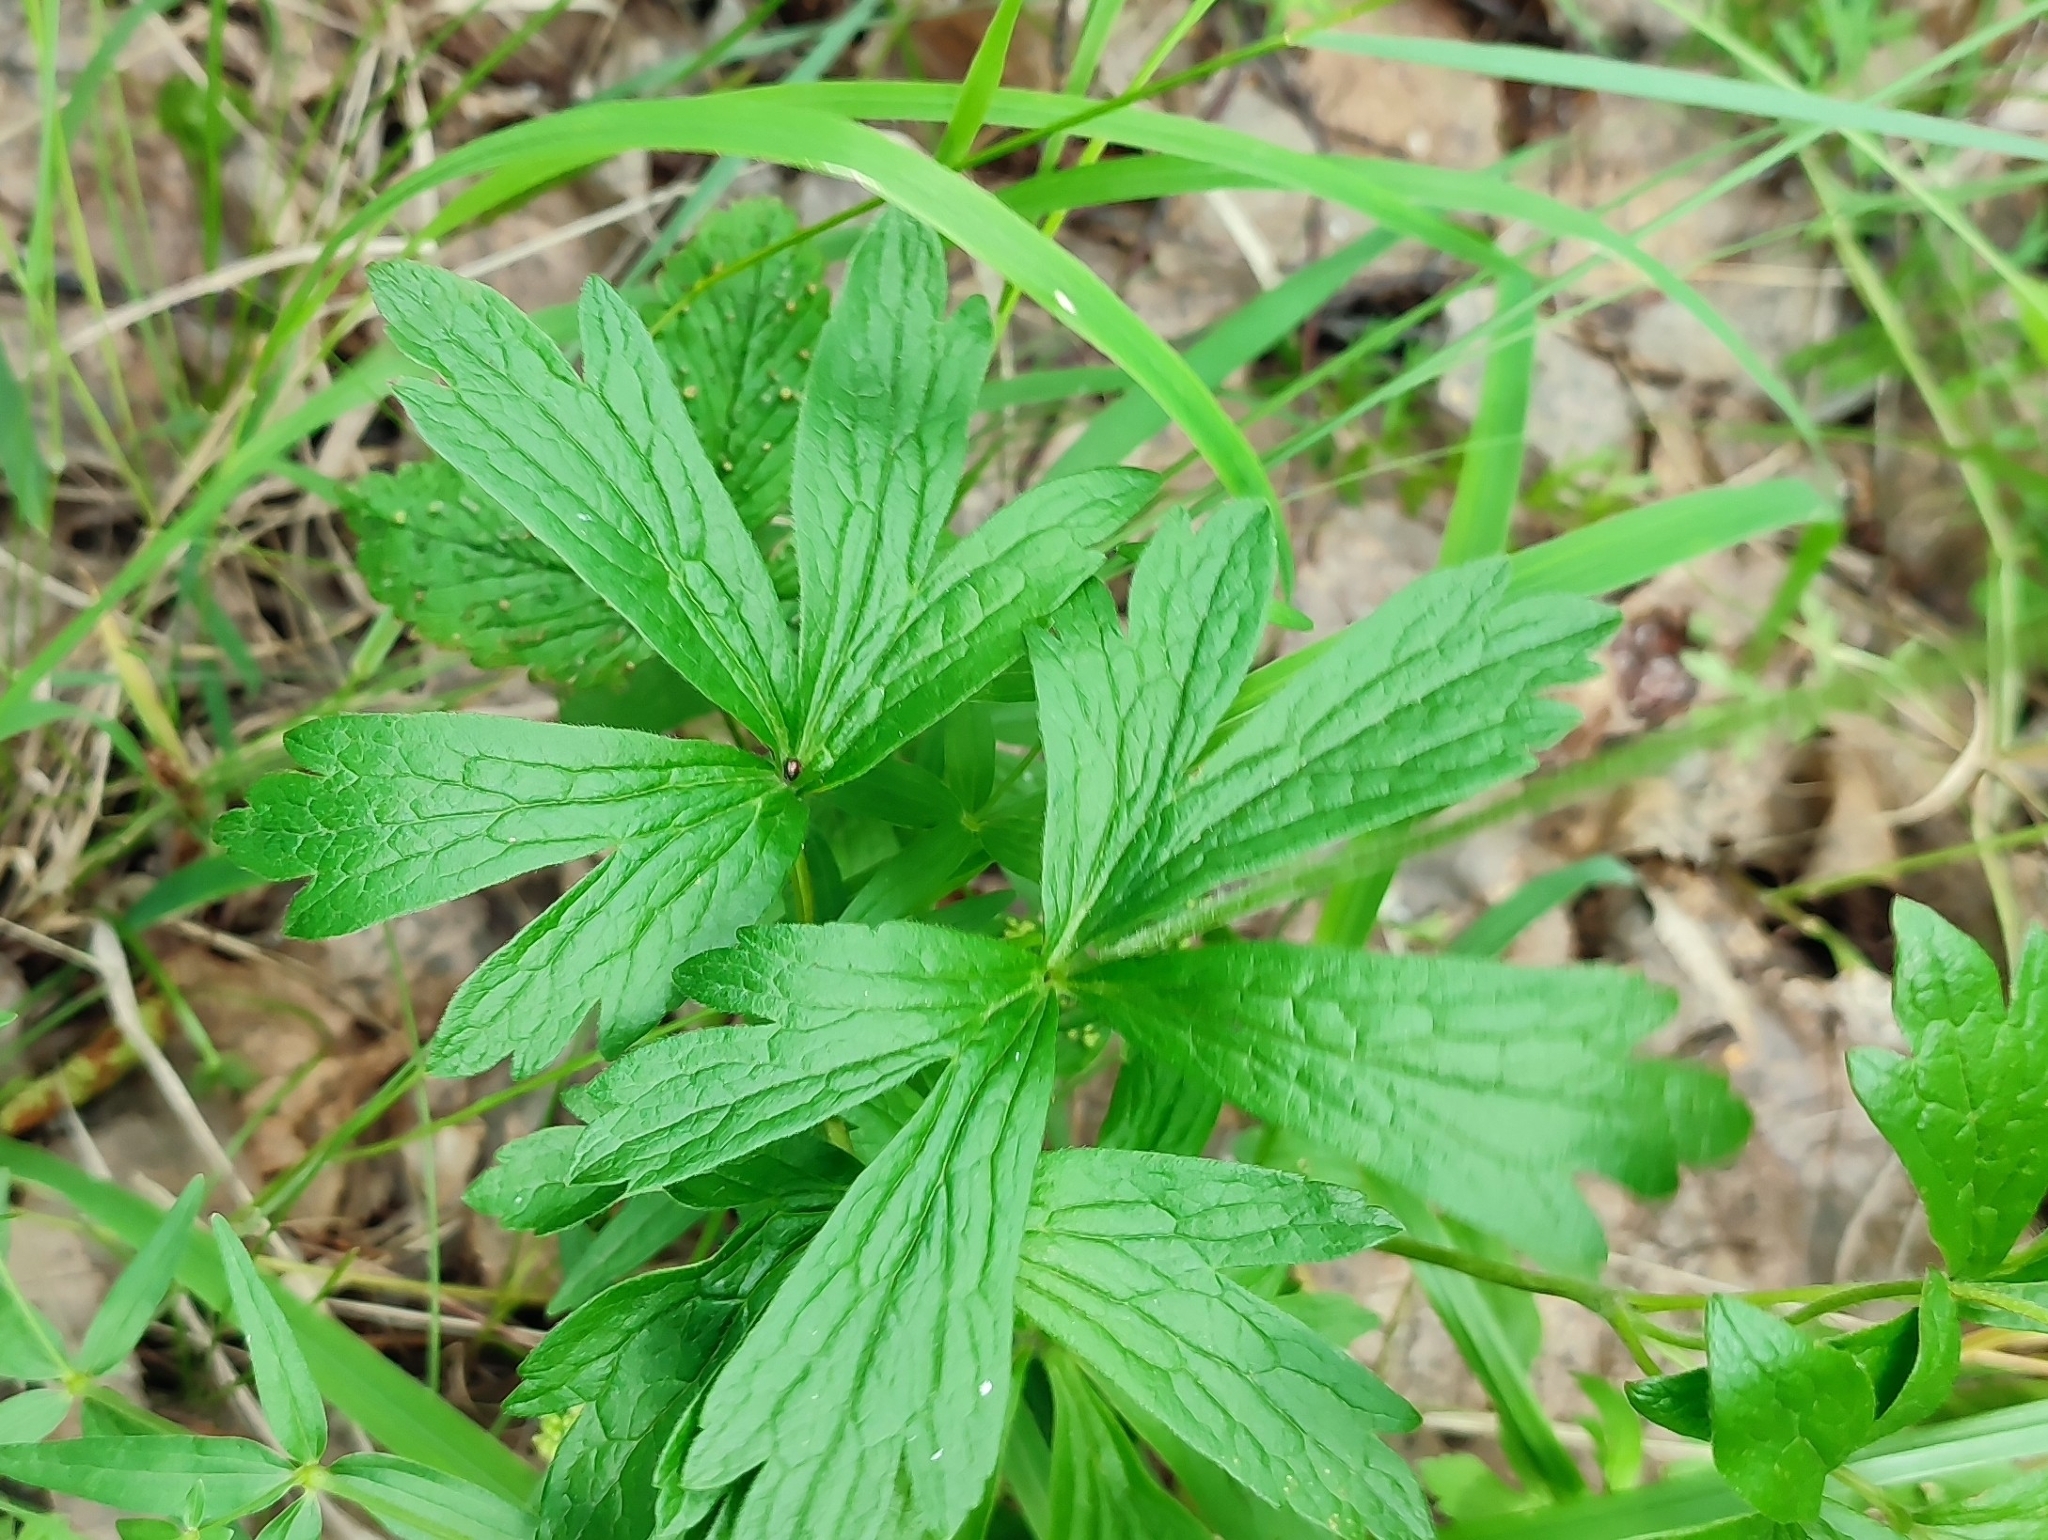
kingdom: Plantae
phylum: Tracheophyta
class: Magnoliopsida
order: Ranunculales
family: Ranunculaceae
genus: Anemone
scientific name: Anemone sylvestris
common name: Snowdrop anemone
